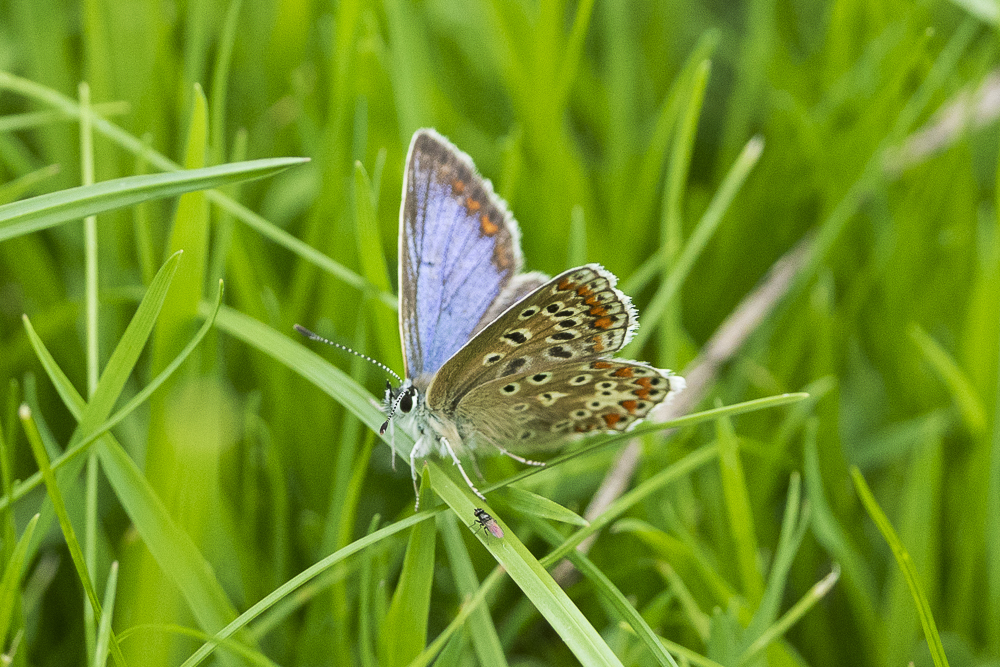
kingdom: Animalia
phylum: Arthropoda
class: Insecta
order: Lepidoptera
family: Lycaenidae
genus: Polyommatus
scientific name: Polyommatus icarus
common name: Common blue
